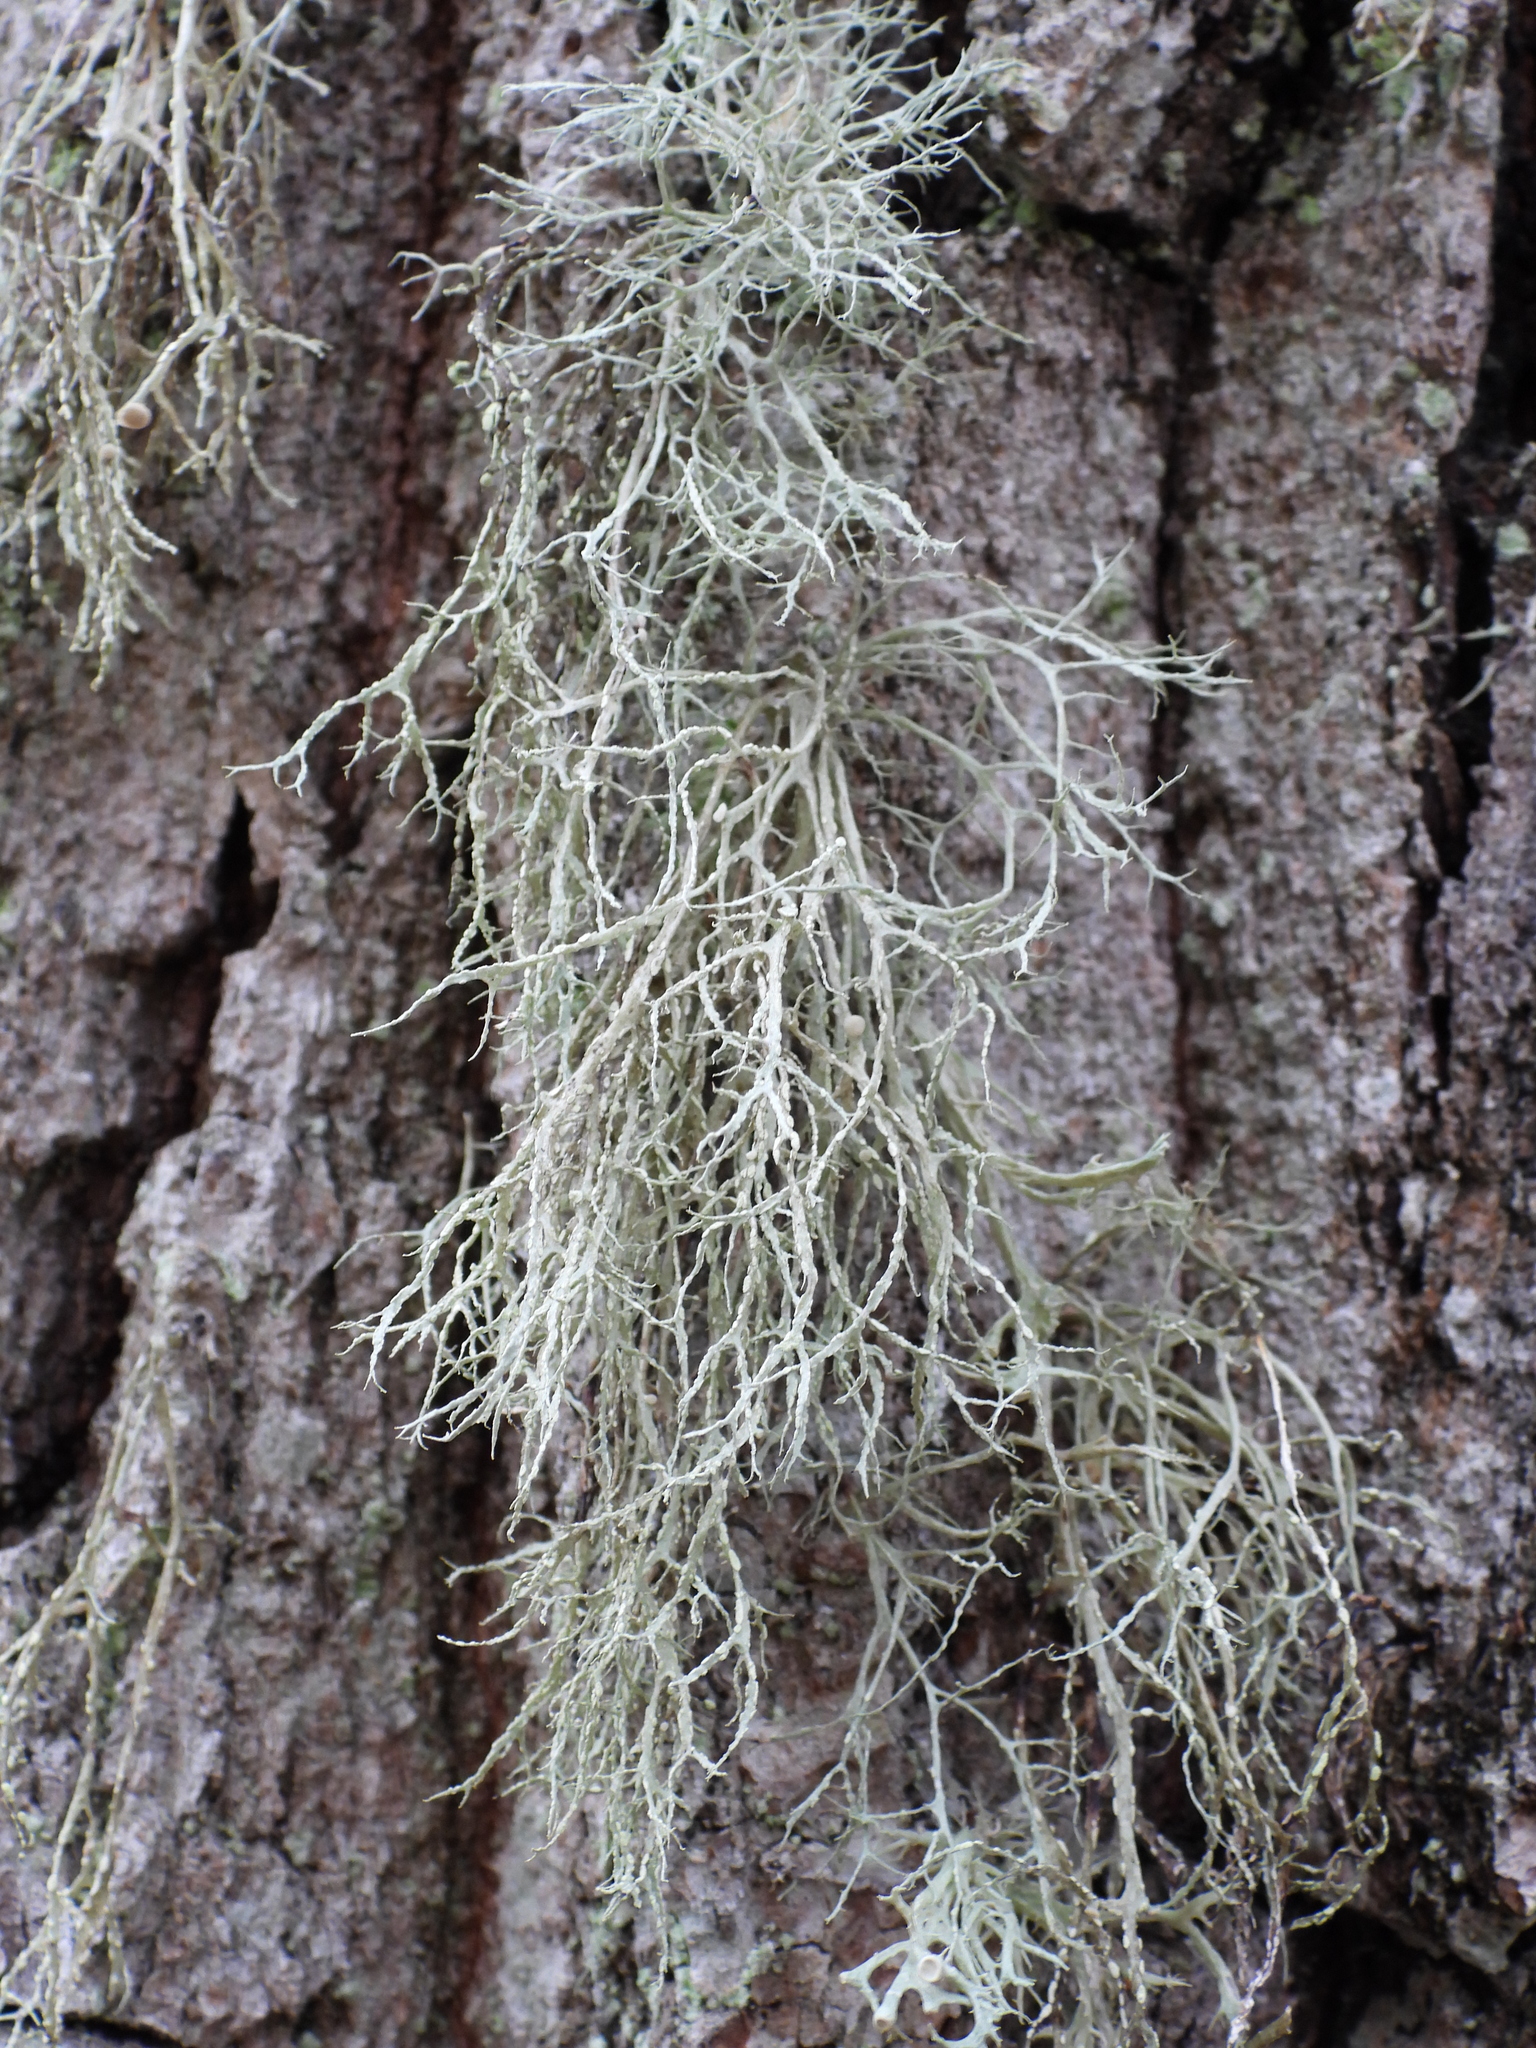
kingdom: Fungi
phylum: Ascomycota
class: Lecanoromycetes
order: Lecanorales
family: Ramalinaceae
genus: Ramalina
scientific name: Ramalina farinacea
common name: Farinose cartilage lichen
